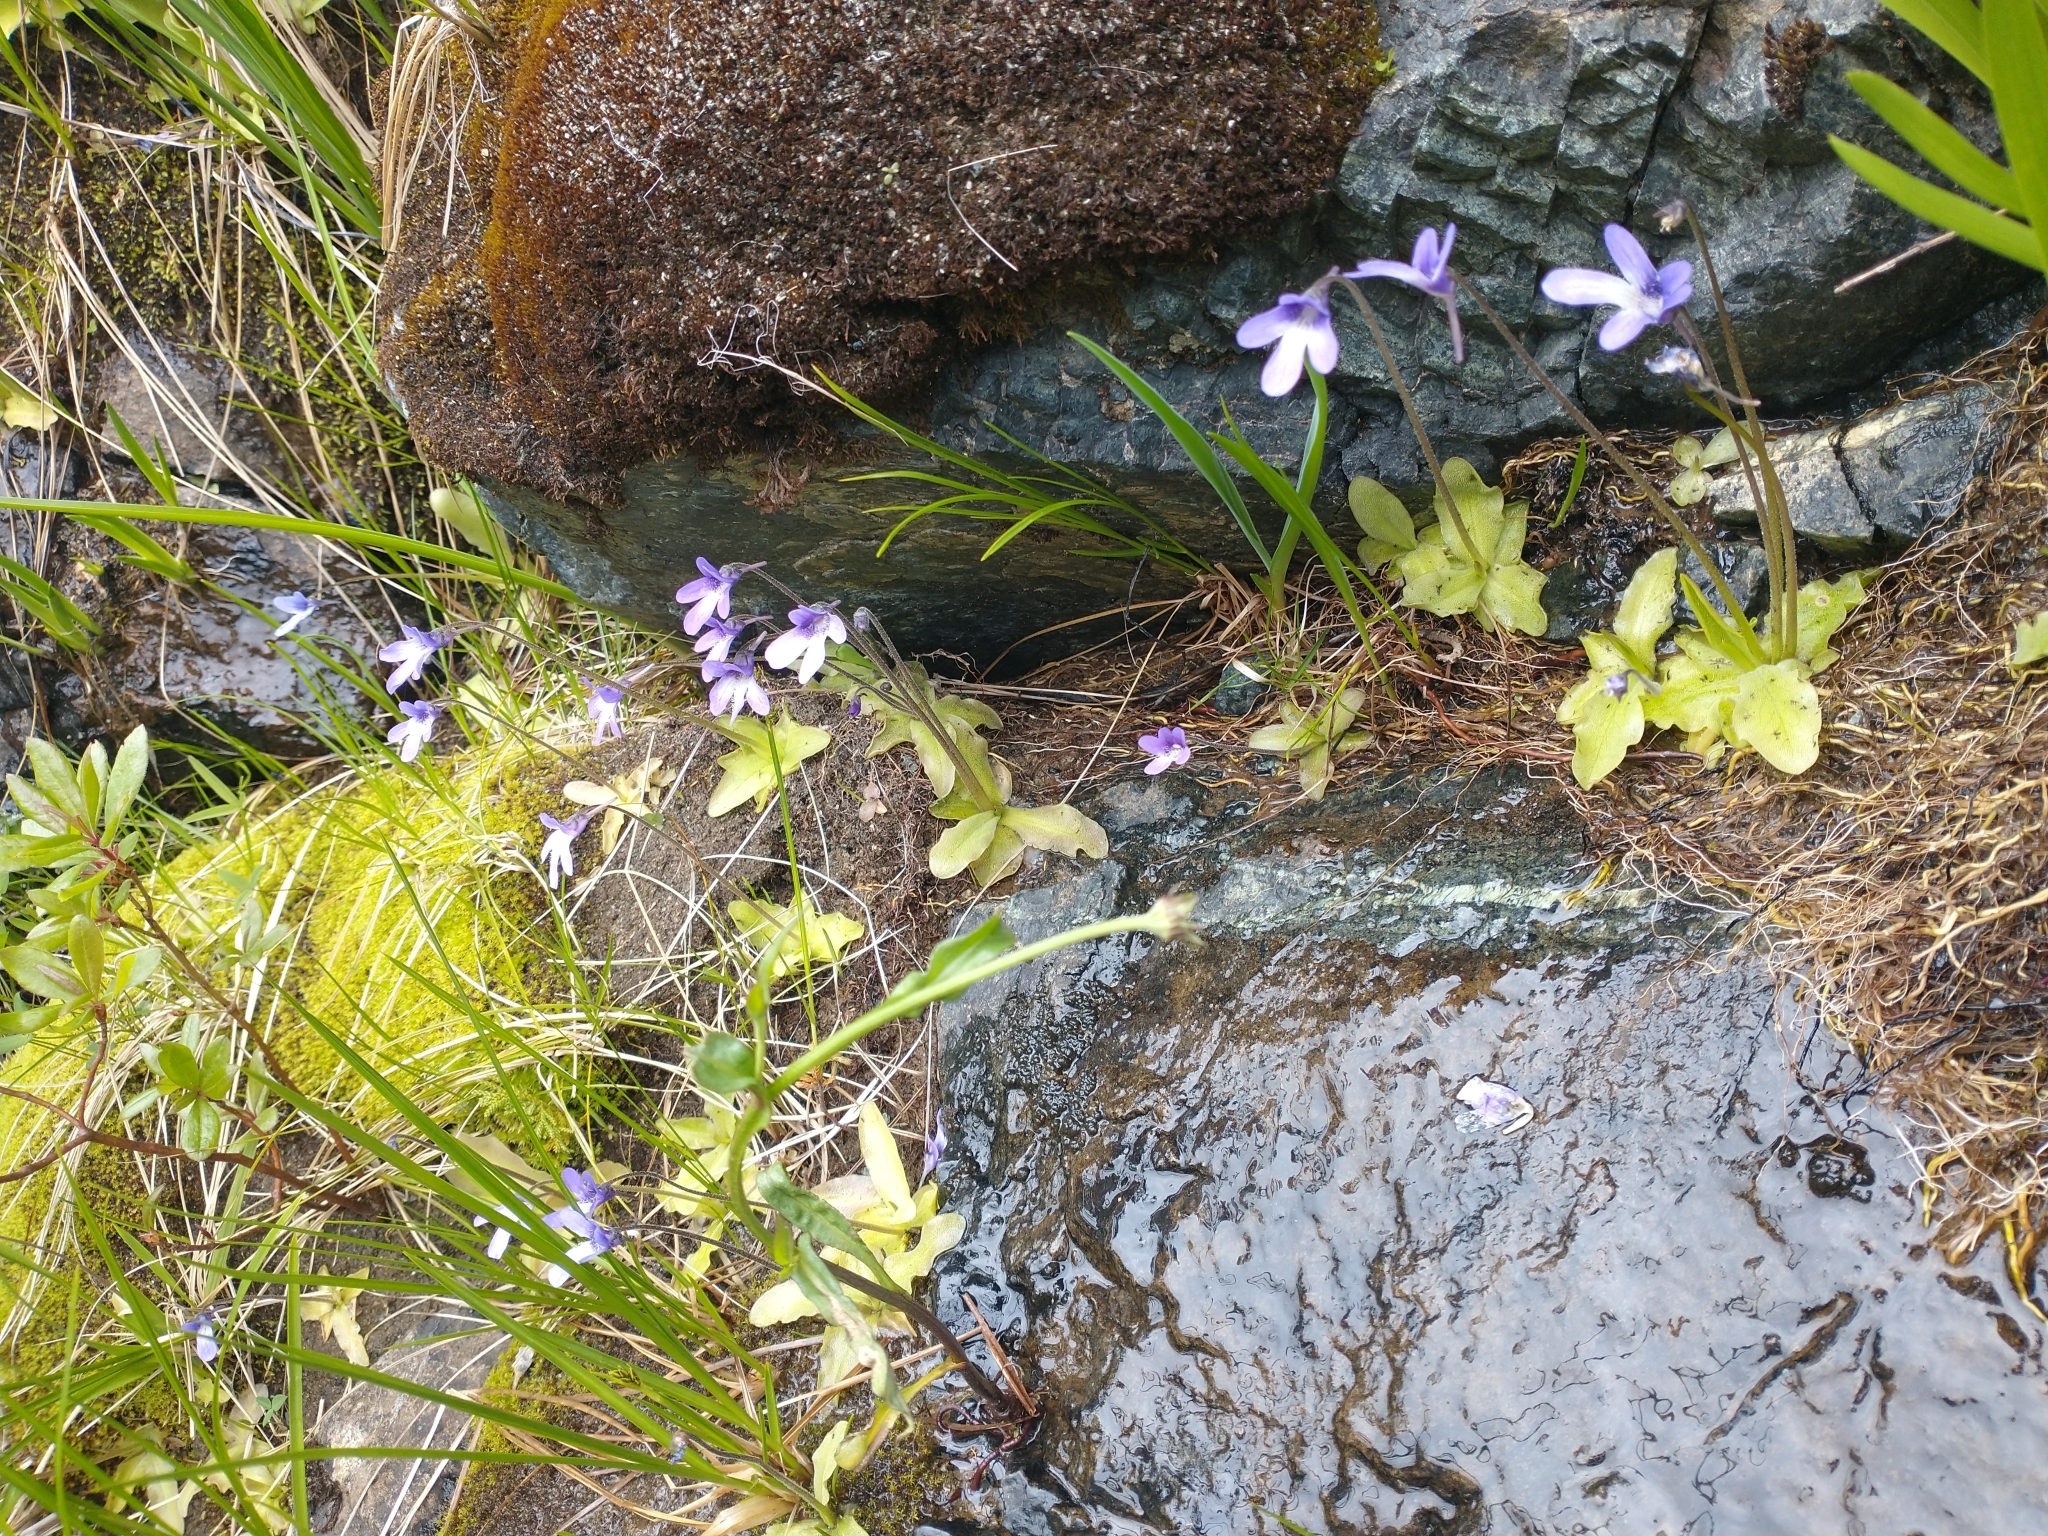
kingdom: Plantae
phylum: Tracheophyta
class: Magnoliopsida
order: Lamiales
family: Lentibulariaceae
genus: Pinguicula
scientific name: Pinguicula macroceras
